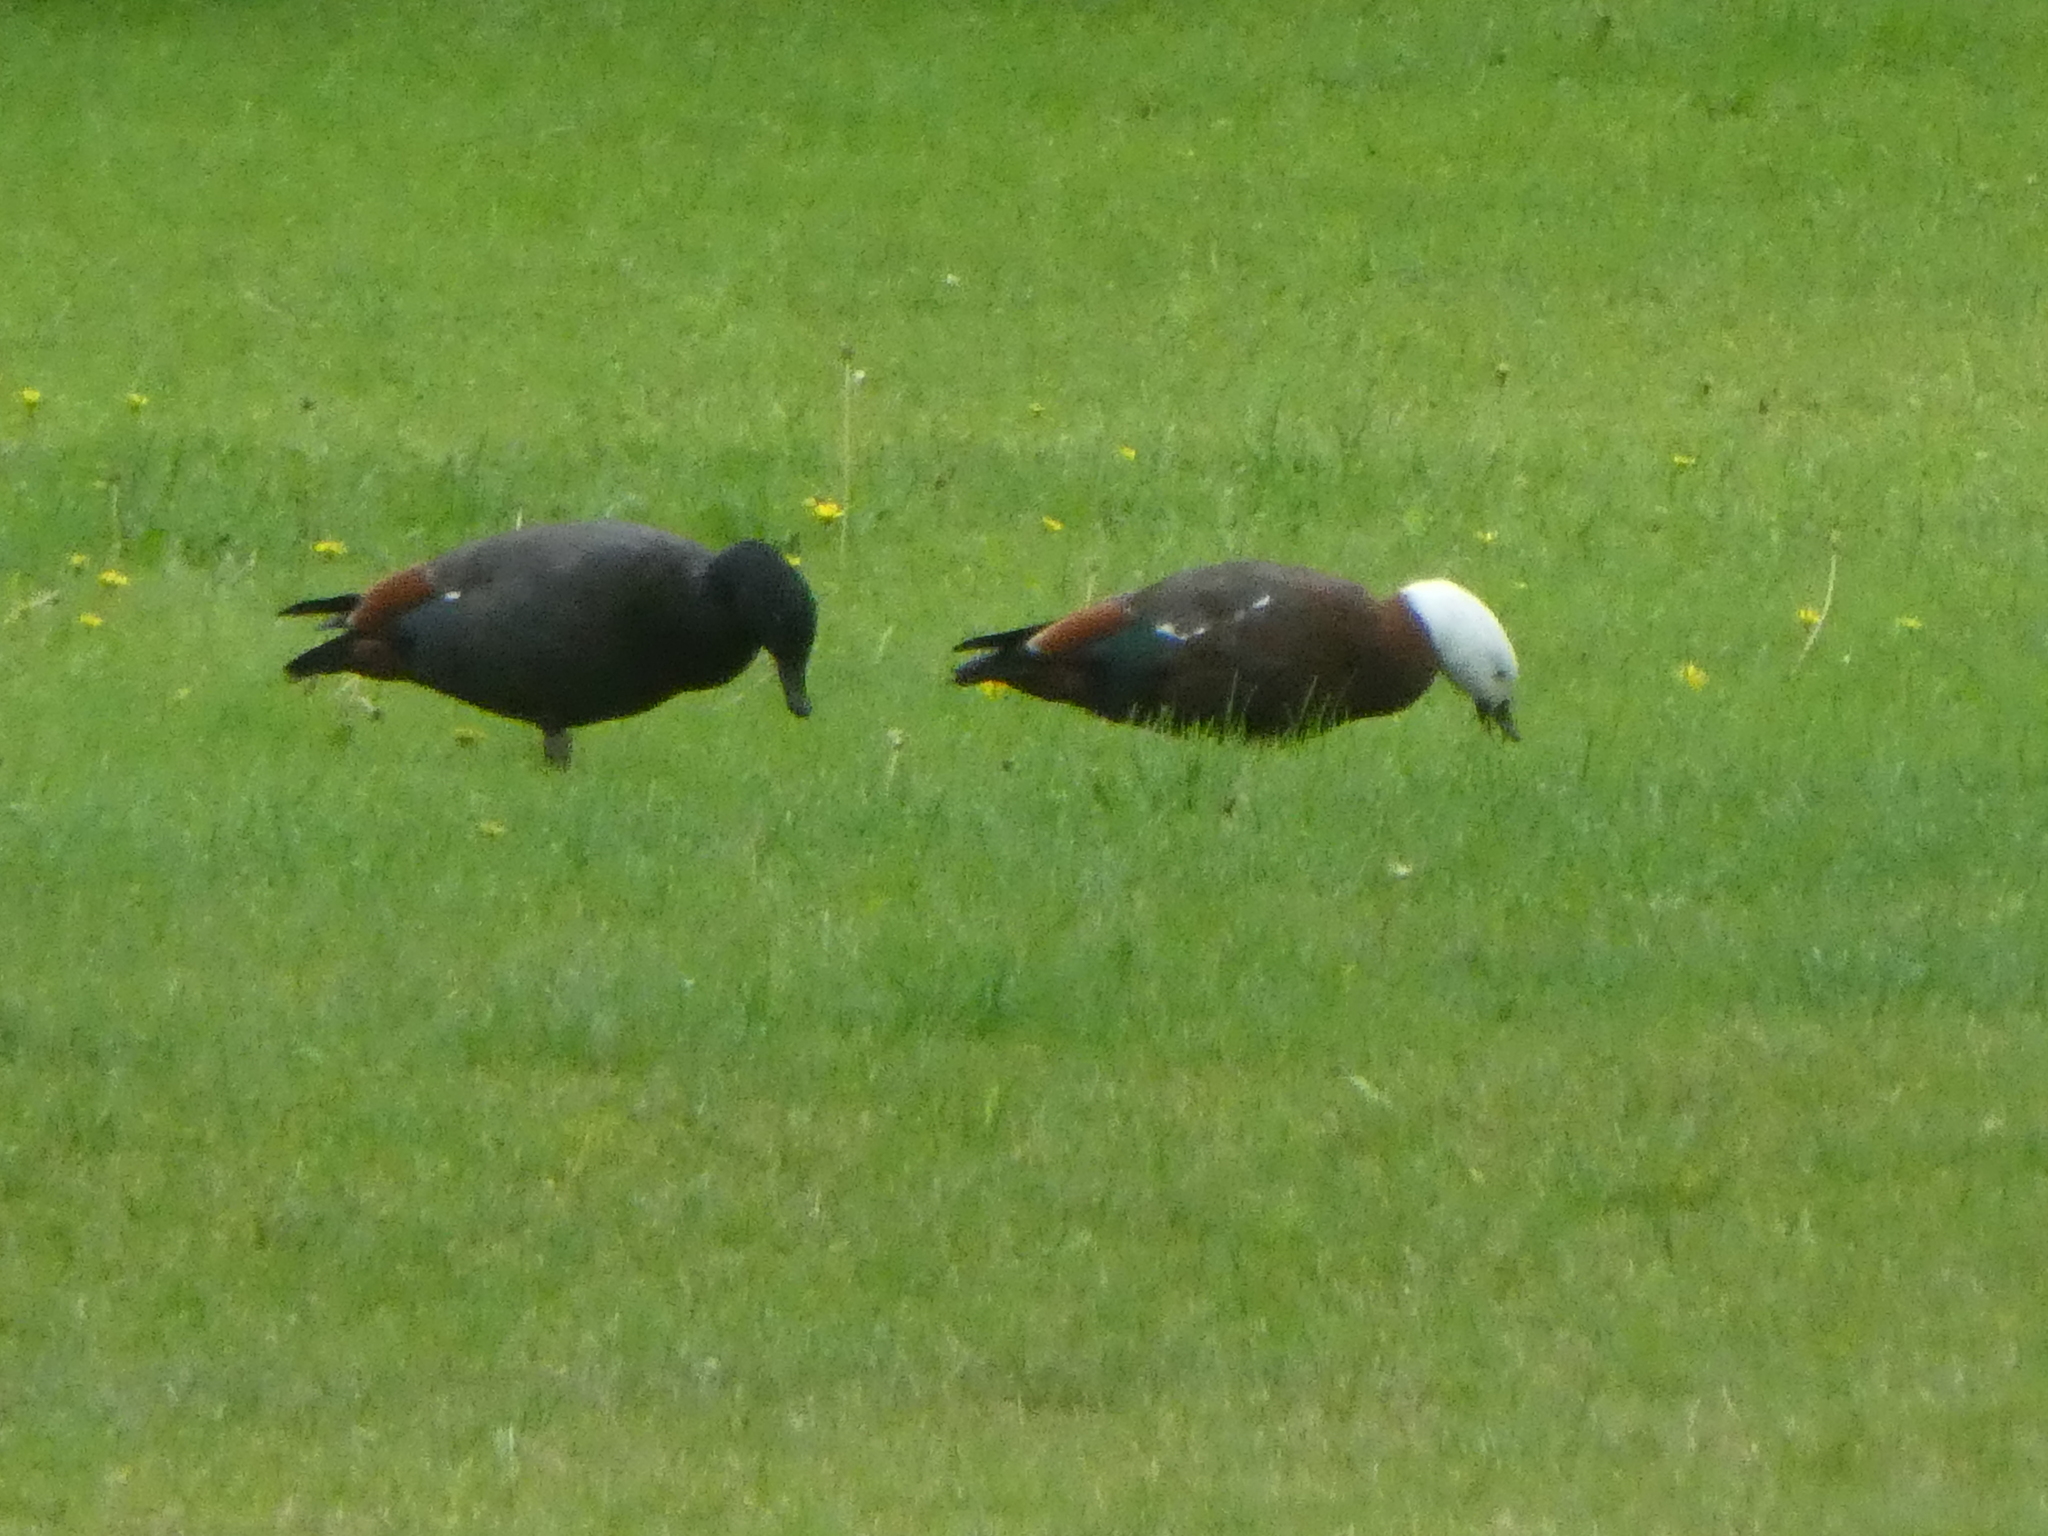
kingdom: Animalia
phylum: Chordata
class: Aves
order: Anseriformes
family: Anatidae
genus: Tadorna
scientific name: Tadorna variegata
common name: Paradise shelduck
